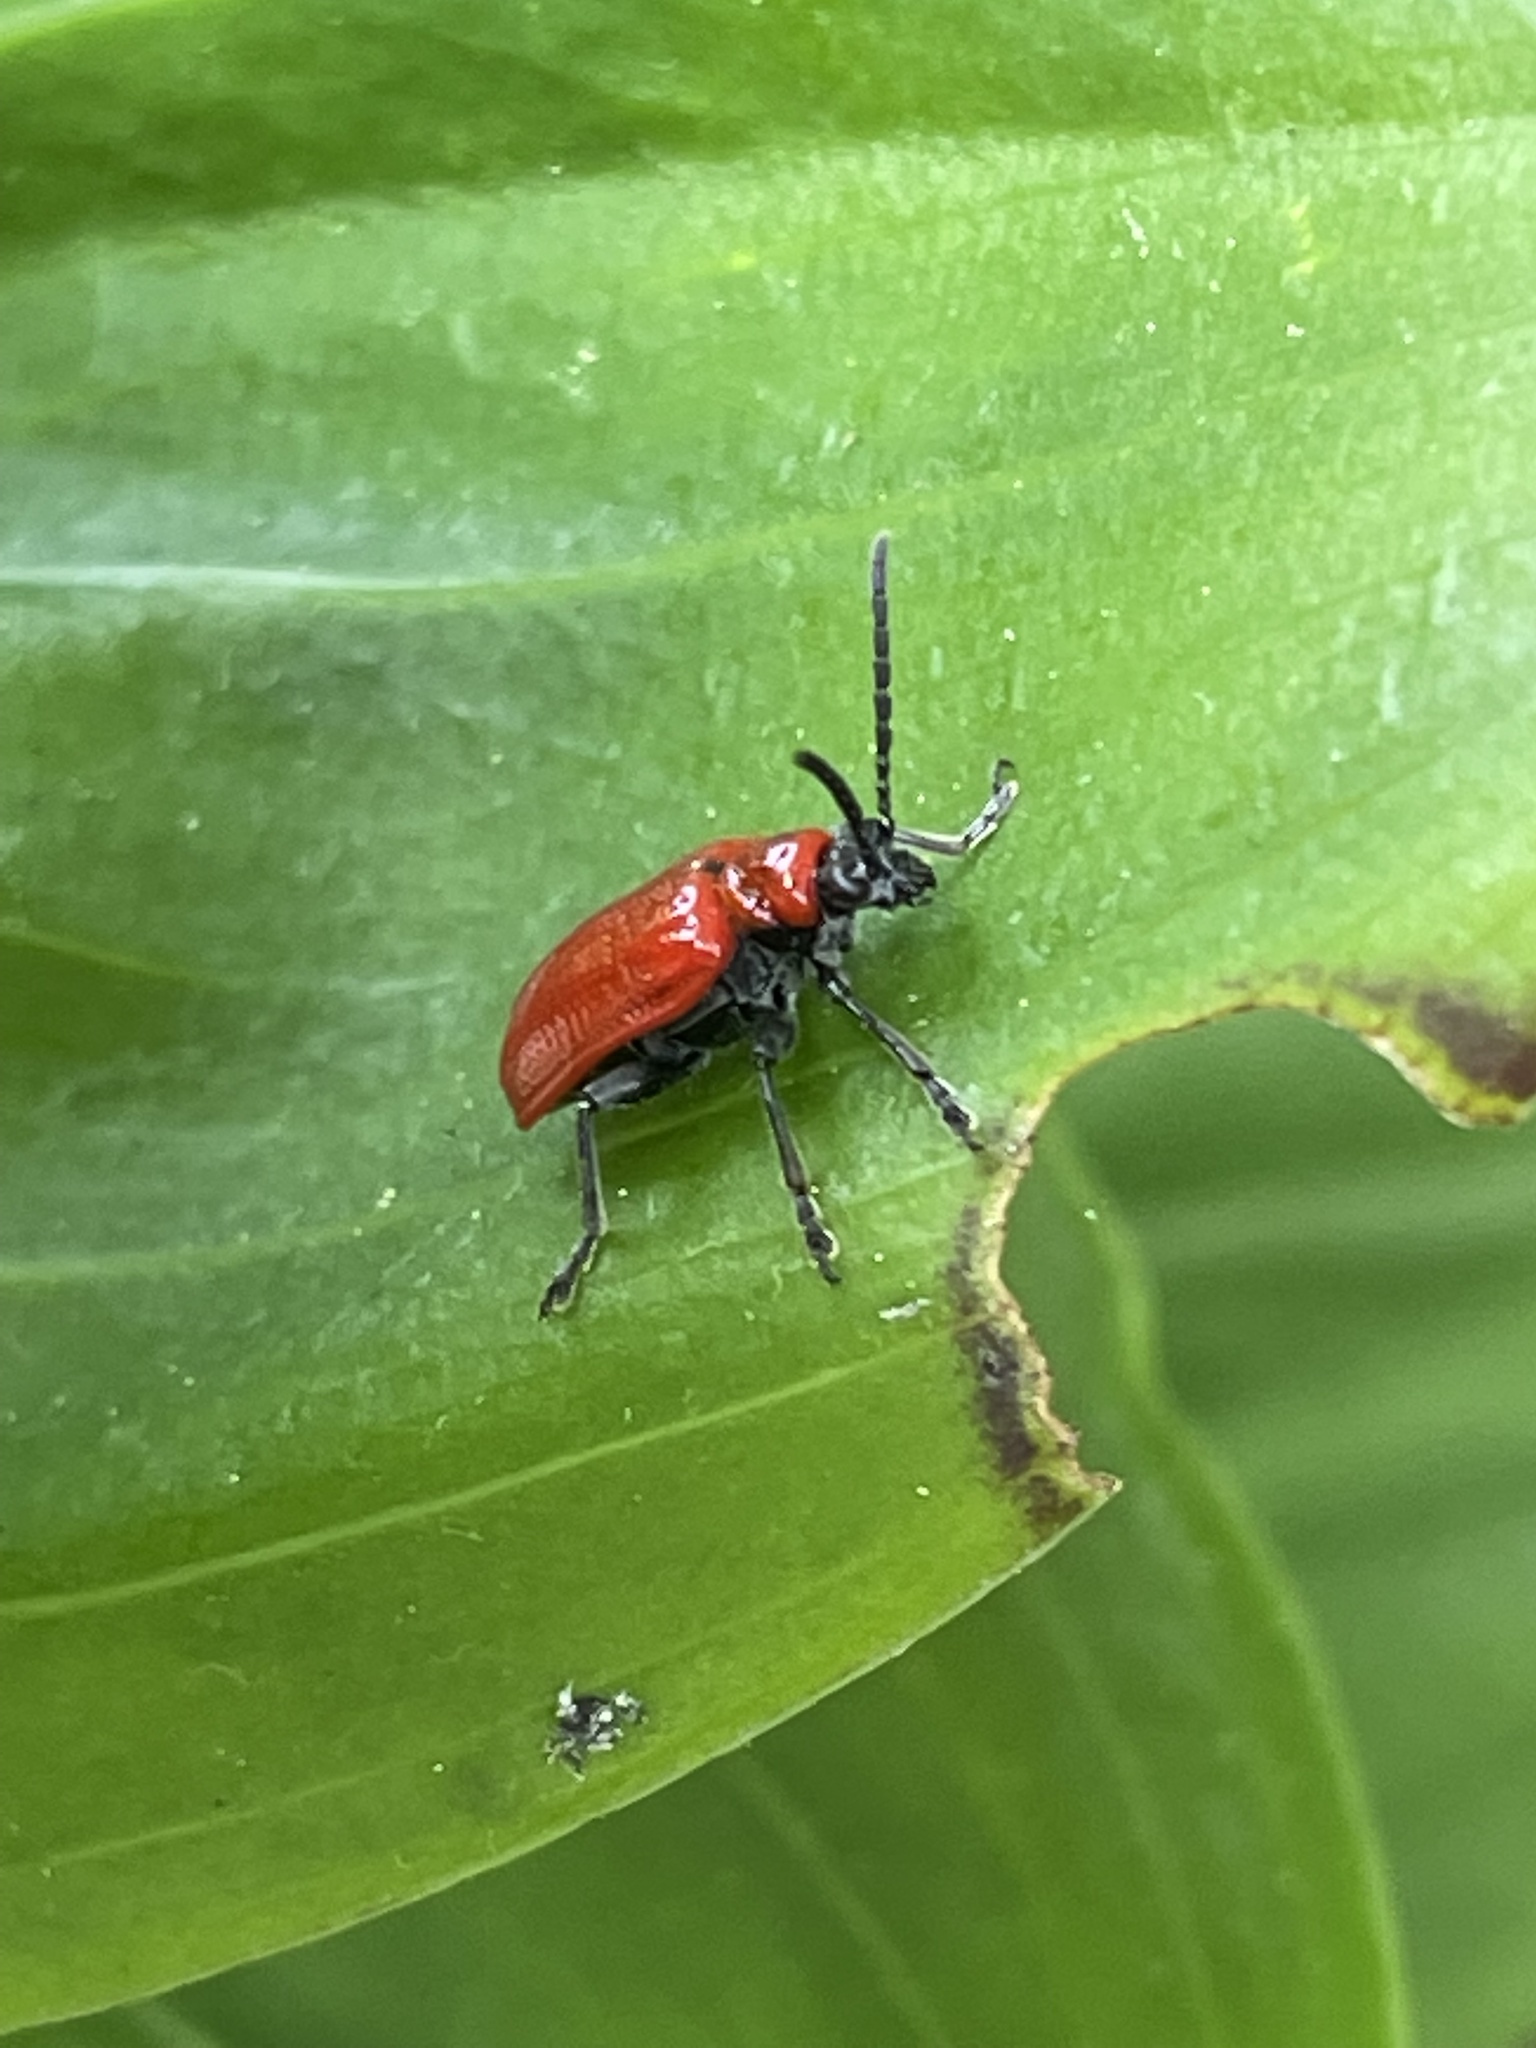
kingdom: Animalia
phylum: Arthropoda
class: Insecta
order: Coleoptera
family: Chrysomelidae
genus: Lilioceris
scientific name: Lilioceris lilii
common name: Lily beetle
